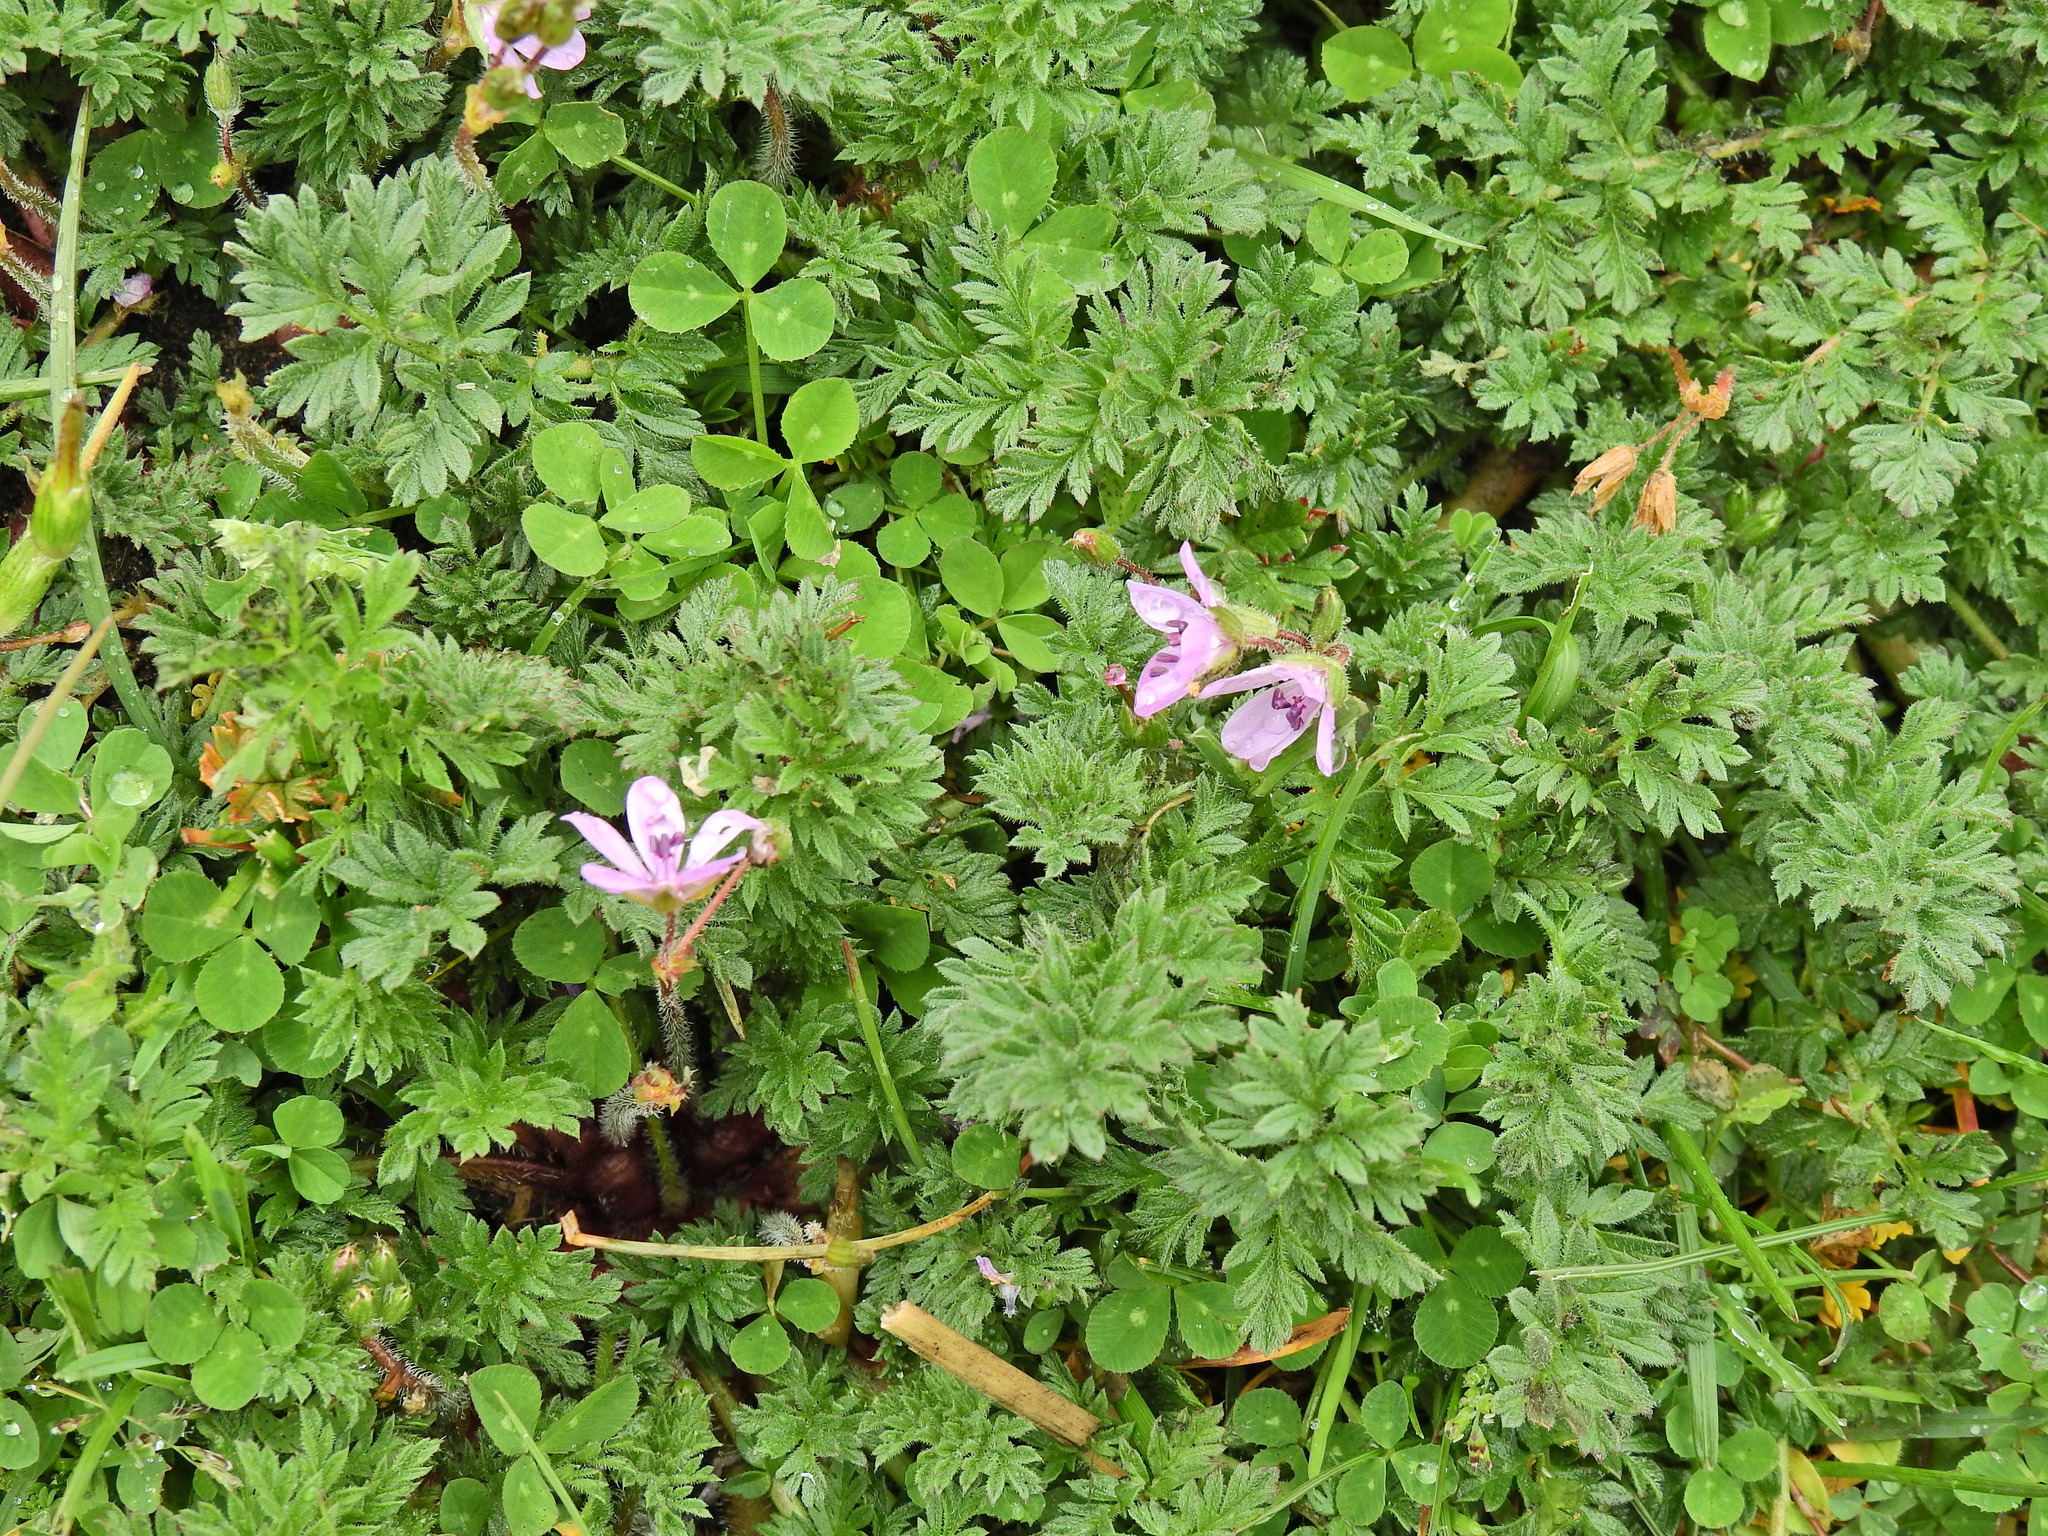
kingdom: Plantae
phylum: Tracheophyta
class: Magnoliopsida
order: Geraniales
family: Geraniaceae
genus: Erodium
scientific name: Erodium cicutarium
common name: Common stork's-bill
